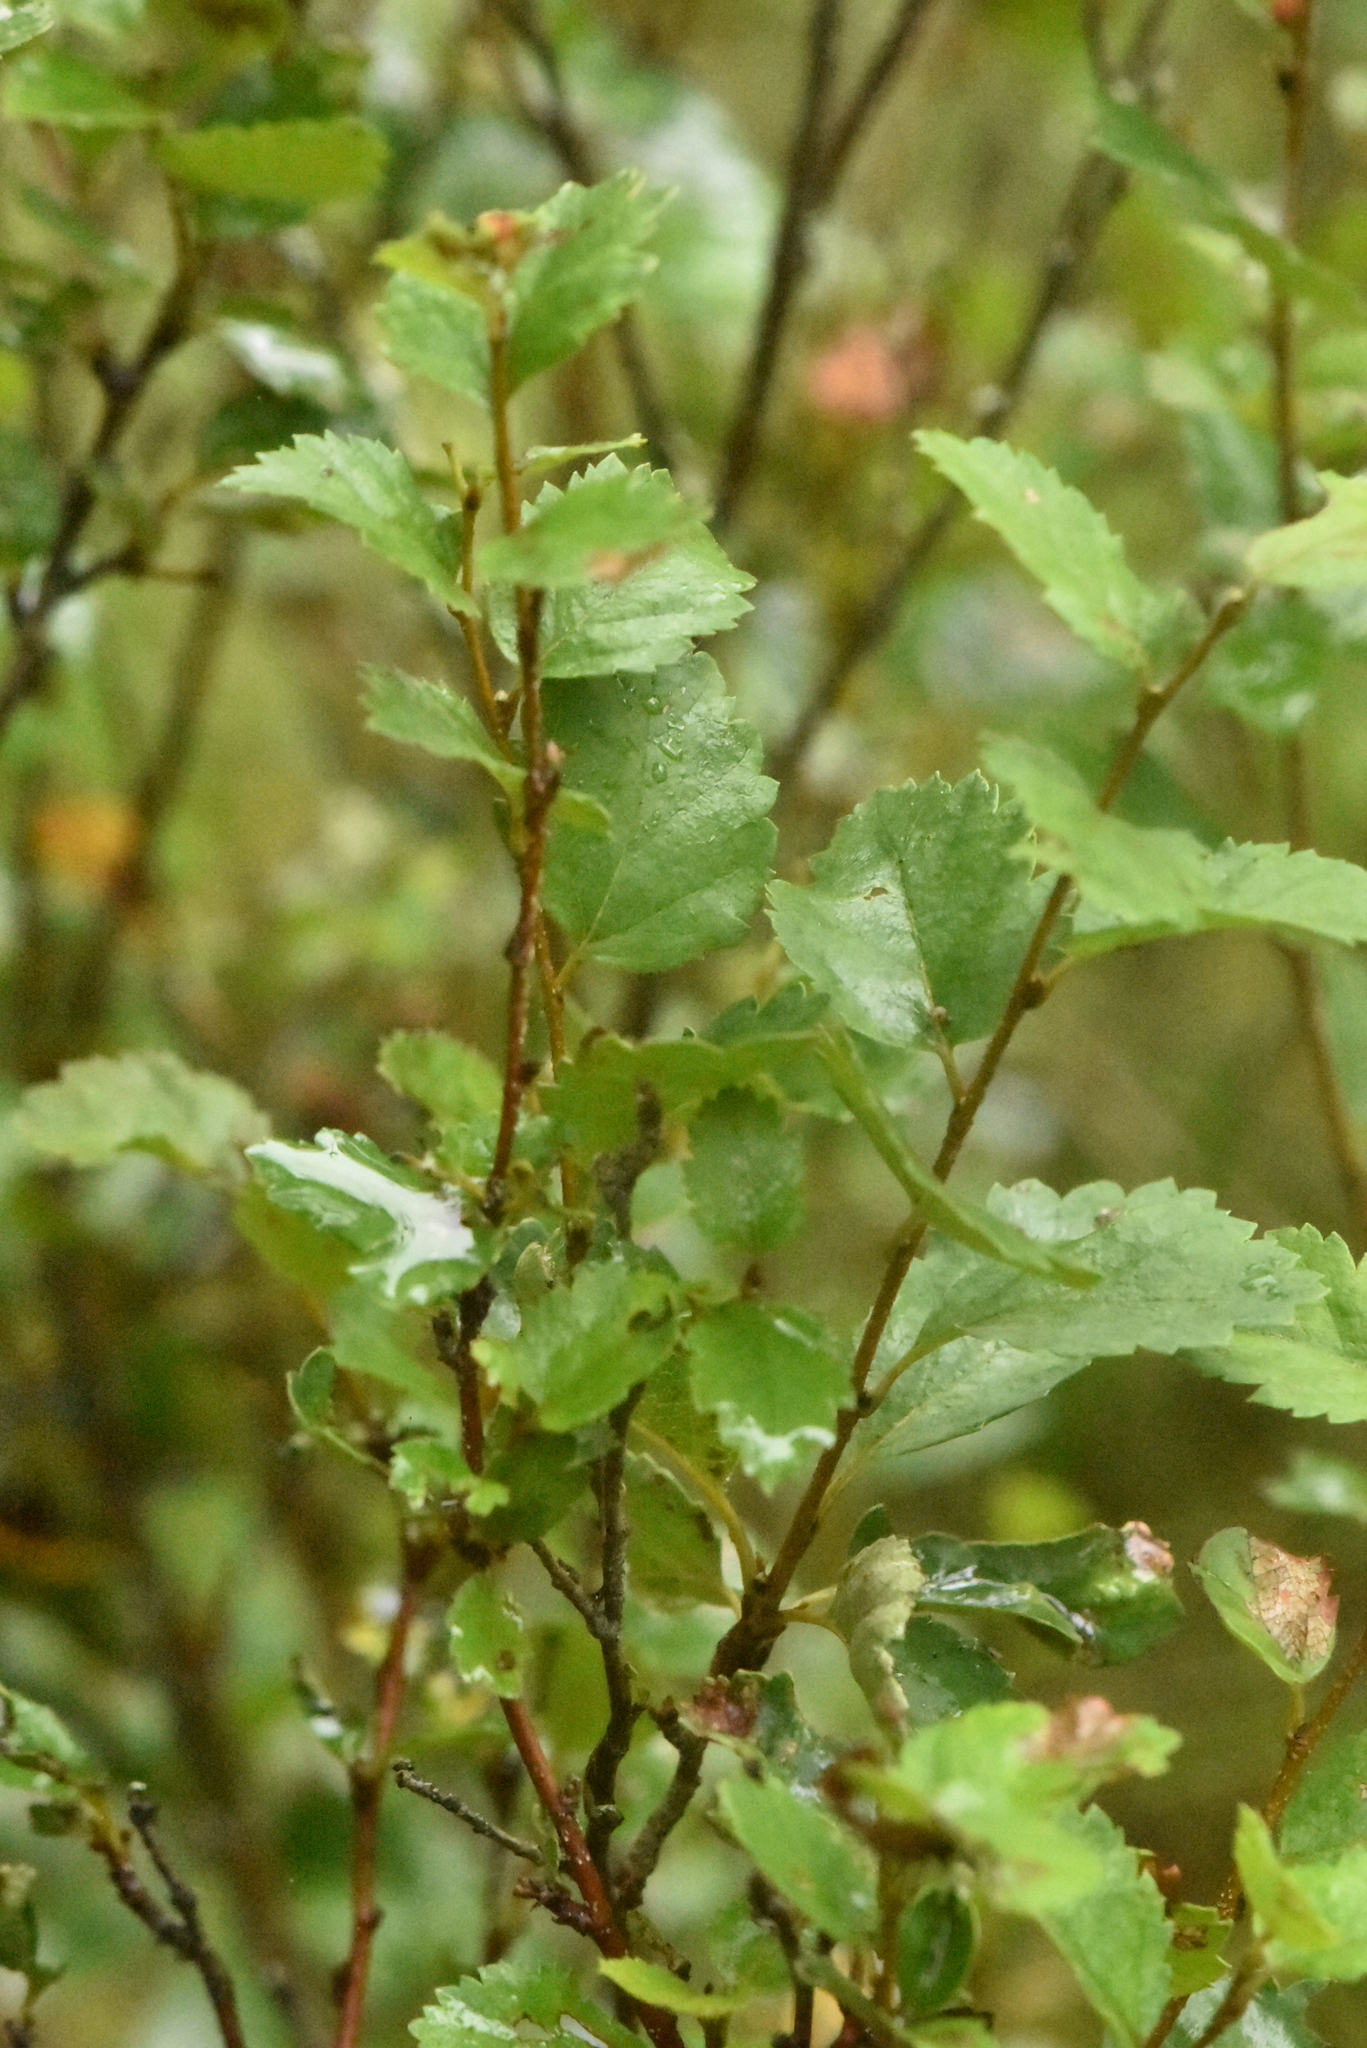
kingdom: Plantae
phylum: Tracheophyta
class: Magnoliopsida
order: Fagales
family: Betulaceae
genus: Betula
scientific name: Betula humilis
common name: Shrubby birch
